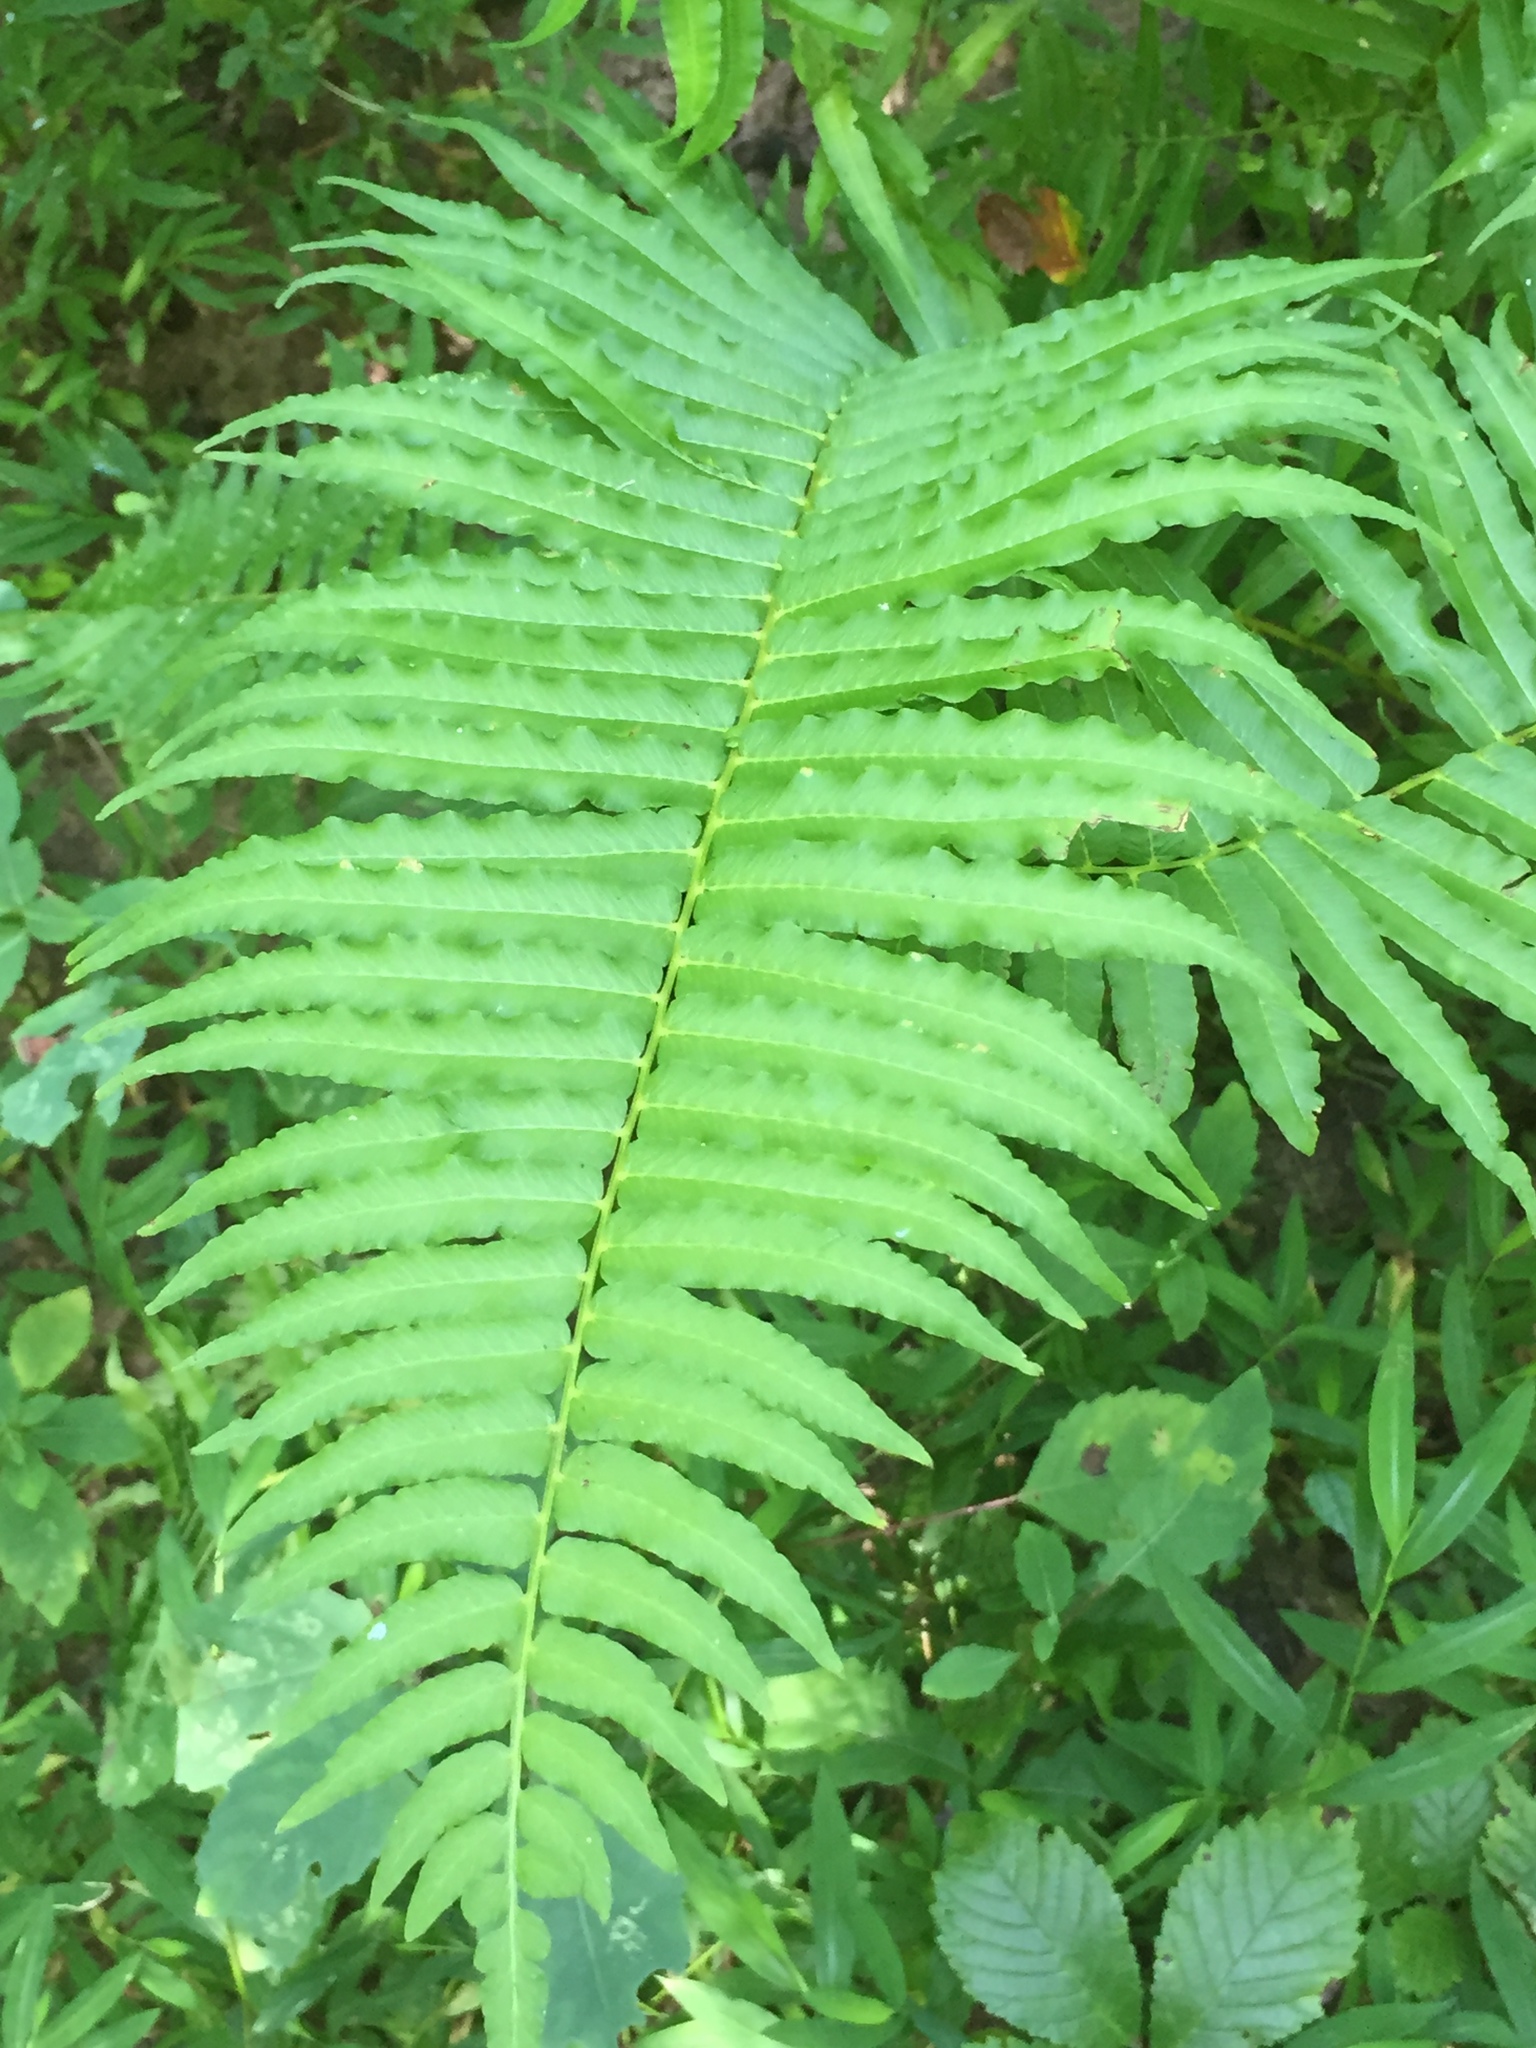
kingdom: Plantae
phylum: Tracheophyta
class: Polypodiopsida
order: Polypodiales
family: Diplaziopsidaceae
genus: Homalosorus
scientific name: Homalosorus pycnocarpos
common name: Glade fern
